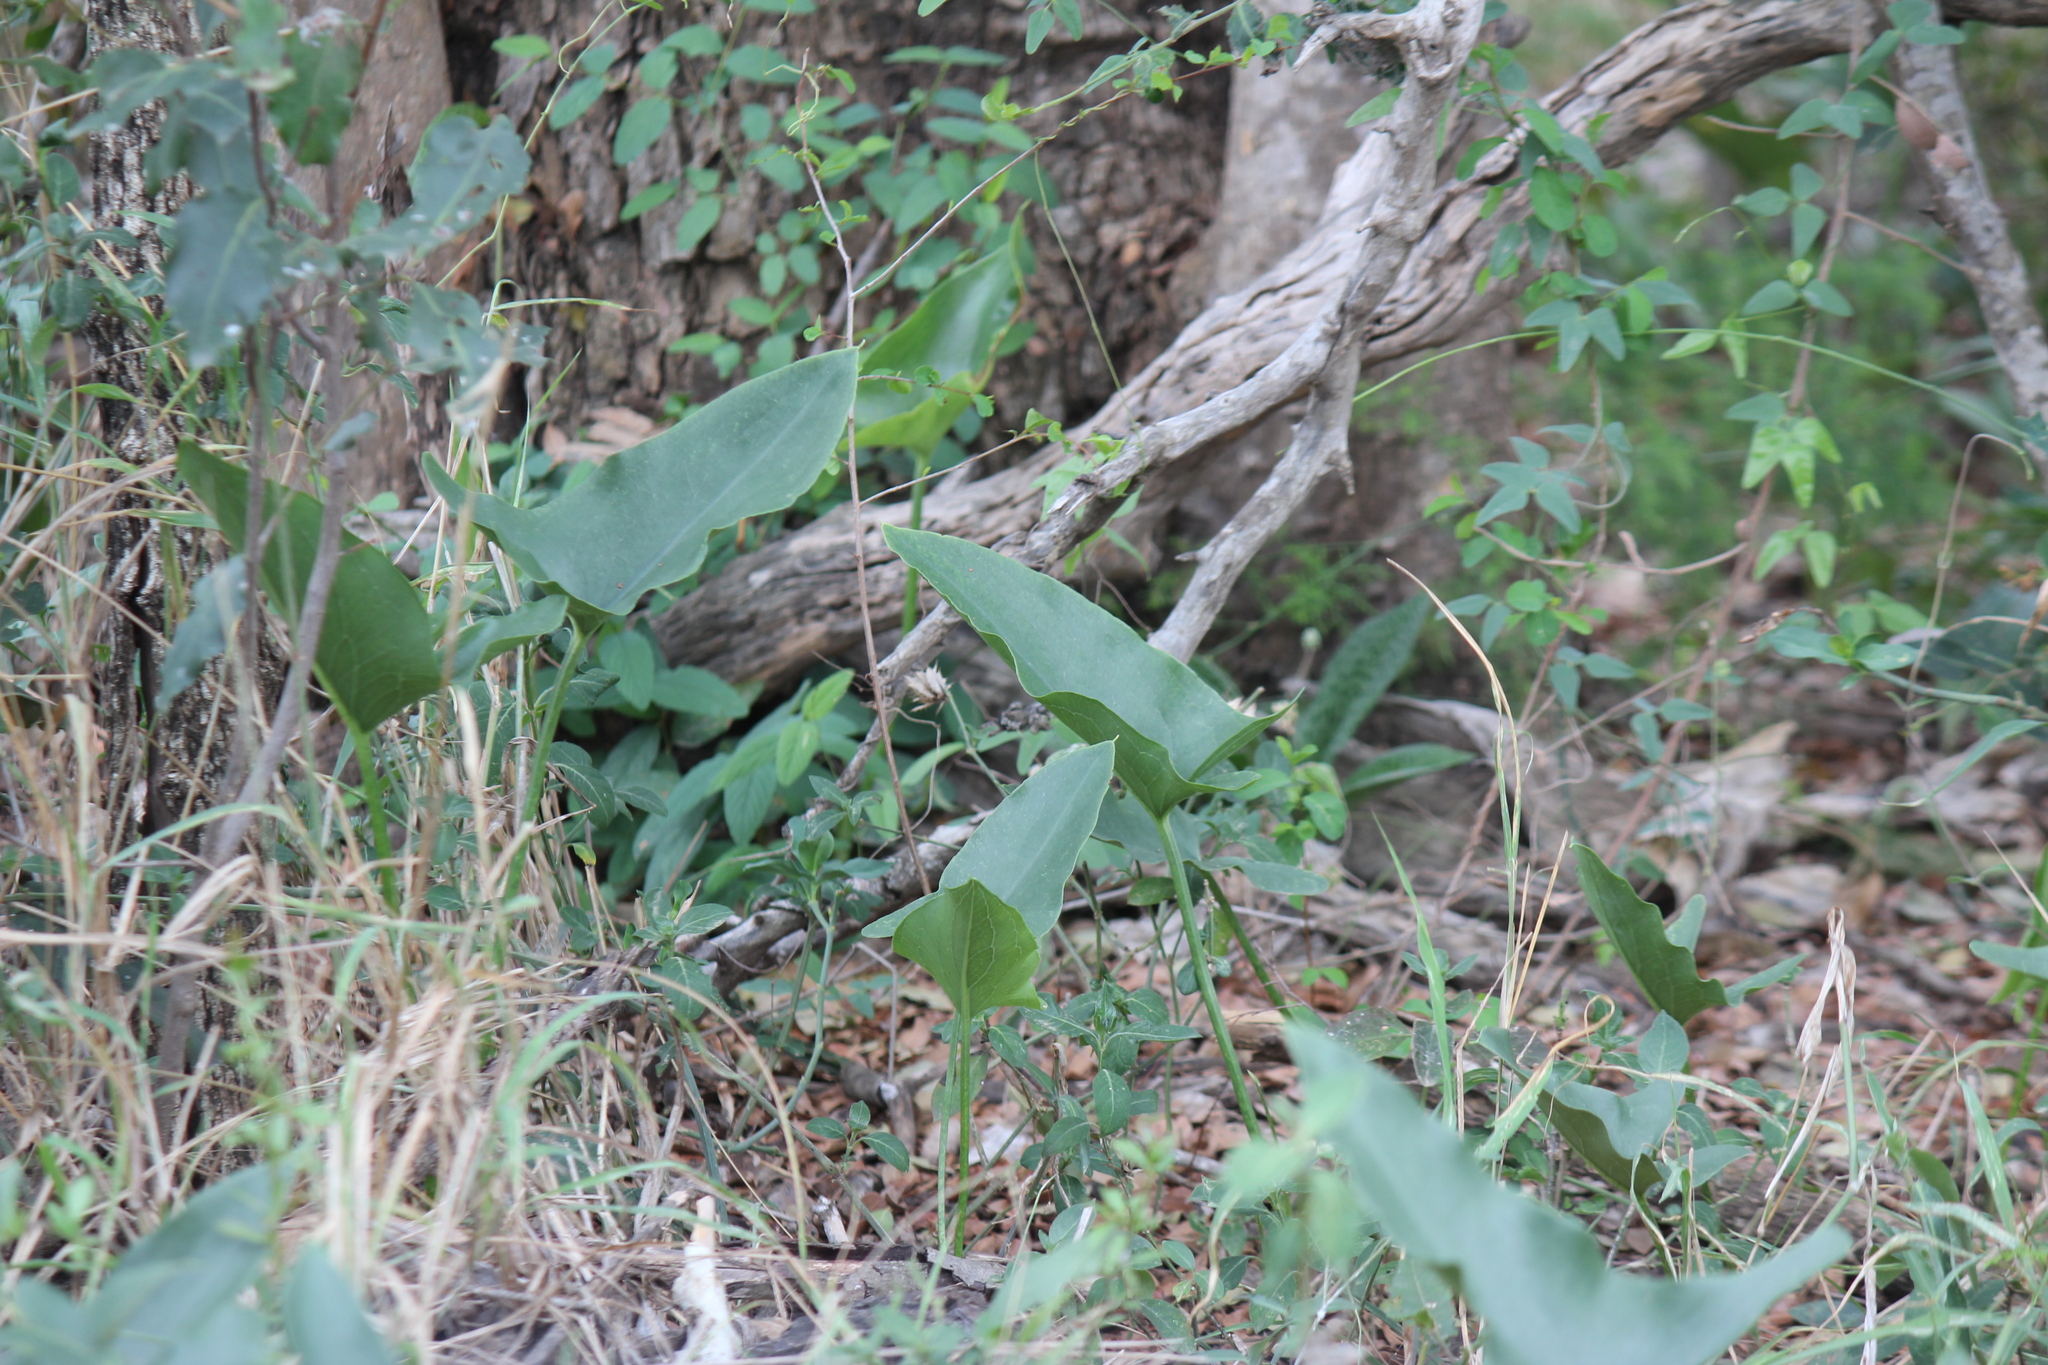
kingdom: Plantae
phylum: Tracheophyta
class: Liliopsida
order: Alismatales
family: Araceae
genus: Stylochaeton
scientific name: Stylochaeton natalensis
